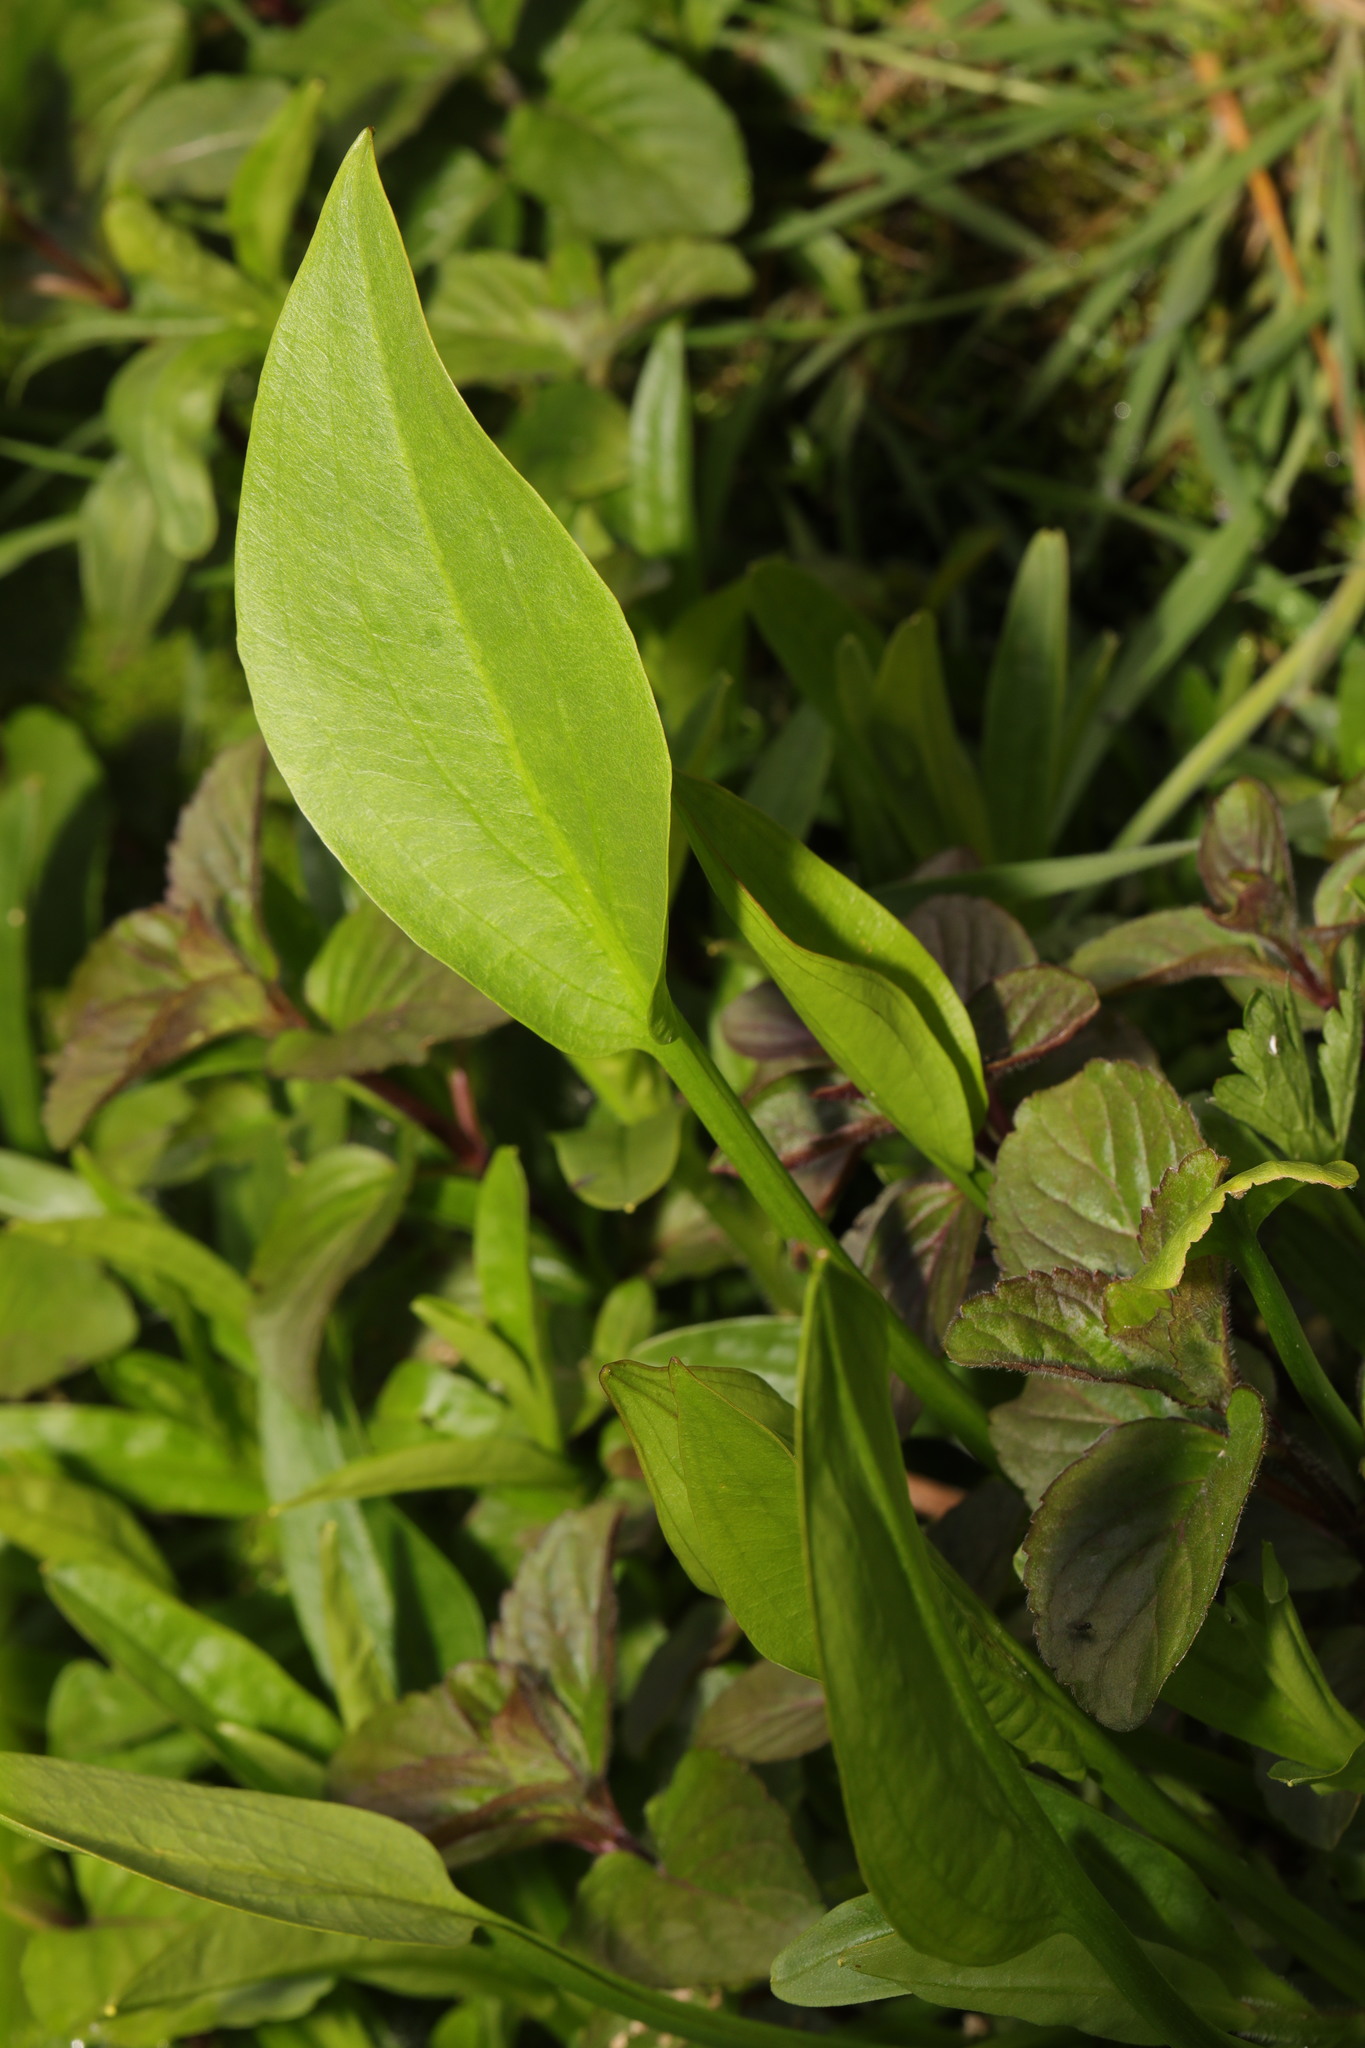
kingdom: Plantae
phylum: Tracheophyta
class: Liliopsida
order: Alismatales
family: Alismataceae
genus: Alisma
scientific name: Alisma plantago-aquatica
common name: Water-plantain
